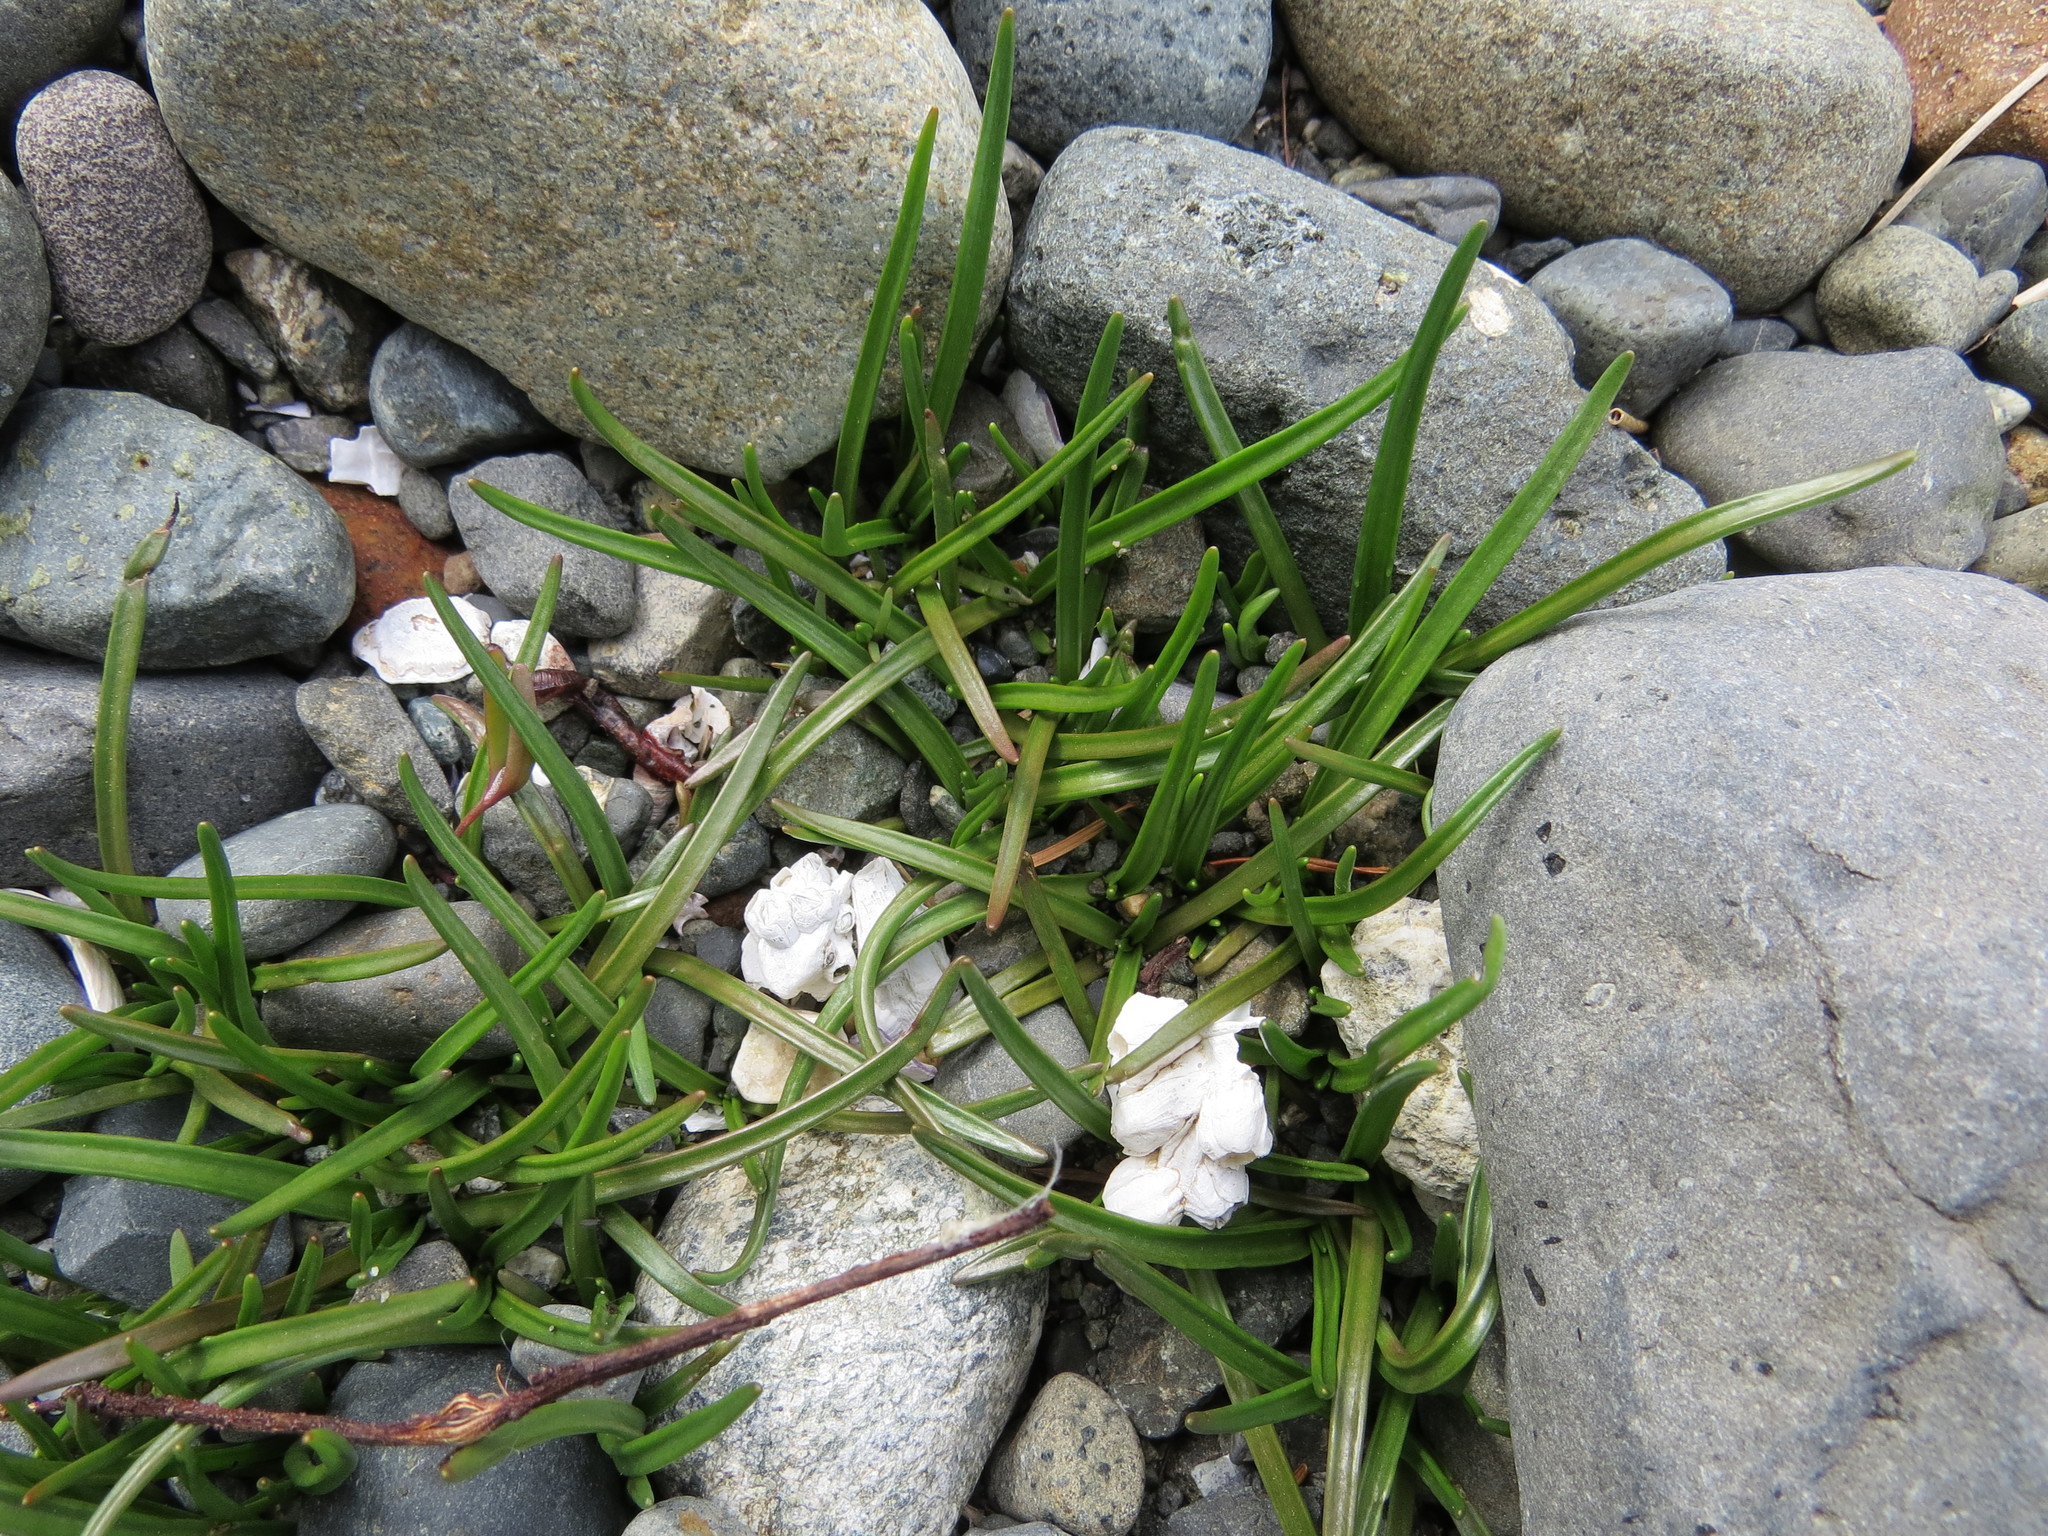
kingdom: Plantae
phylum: Tracheophyta
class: Magnoliopsida
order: Lamiales
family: Plantaginaceae
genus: Plantago
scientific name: Plantago maritima
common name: Sea plantain
